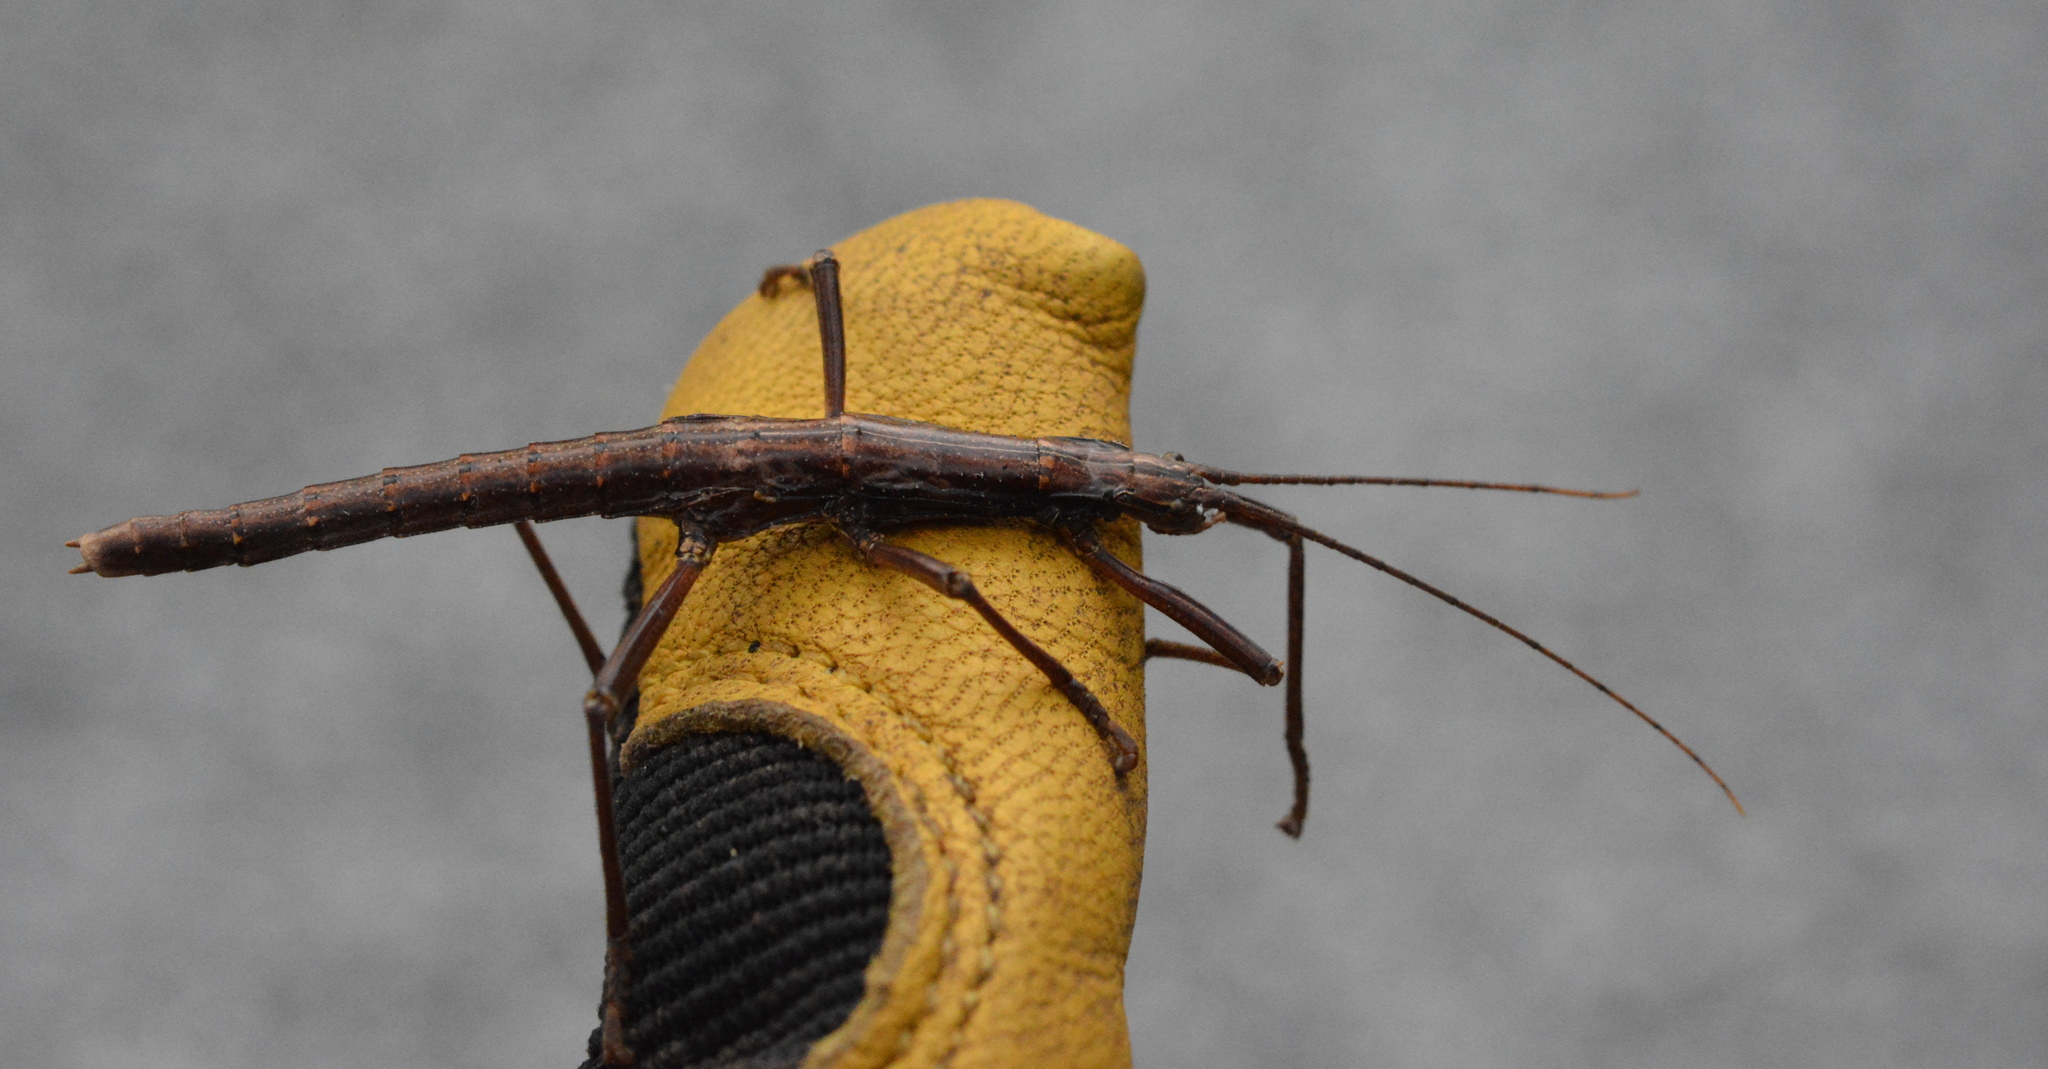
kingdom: Animalia
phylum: Arthropoda
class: Insecta
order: Phasmida
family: Pseudophasmatidae
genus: Anisomorpha
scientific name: Anisomorpha buprestoides
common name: Florida stick insect
